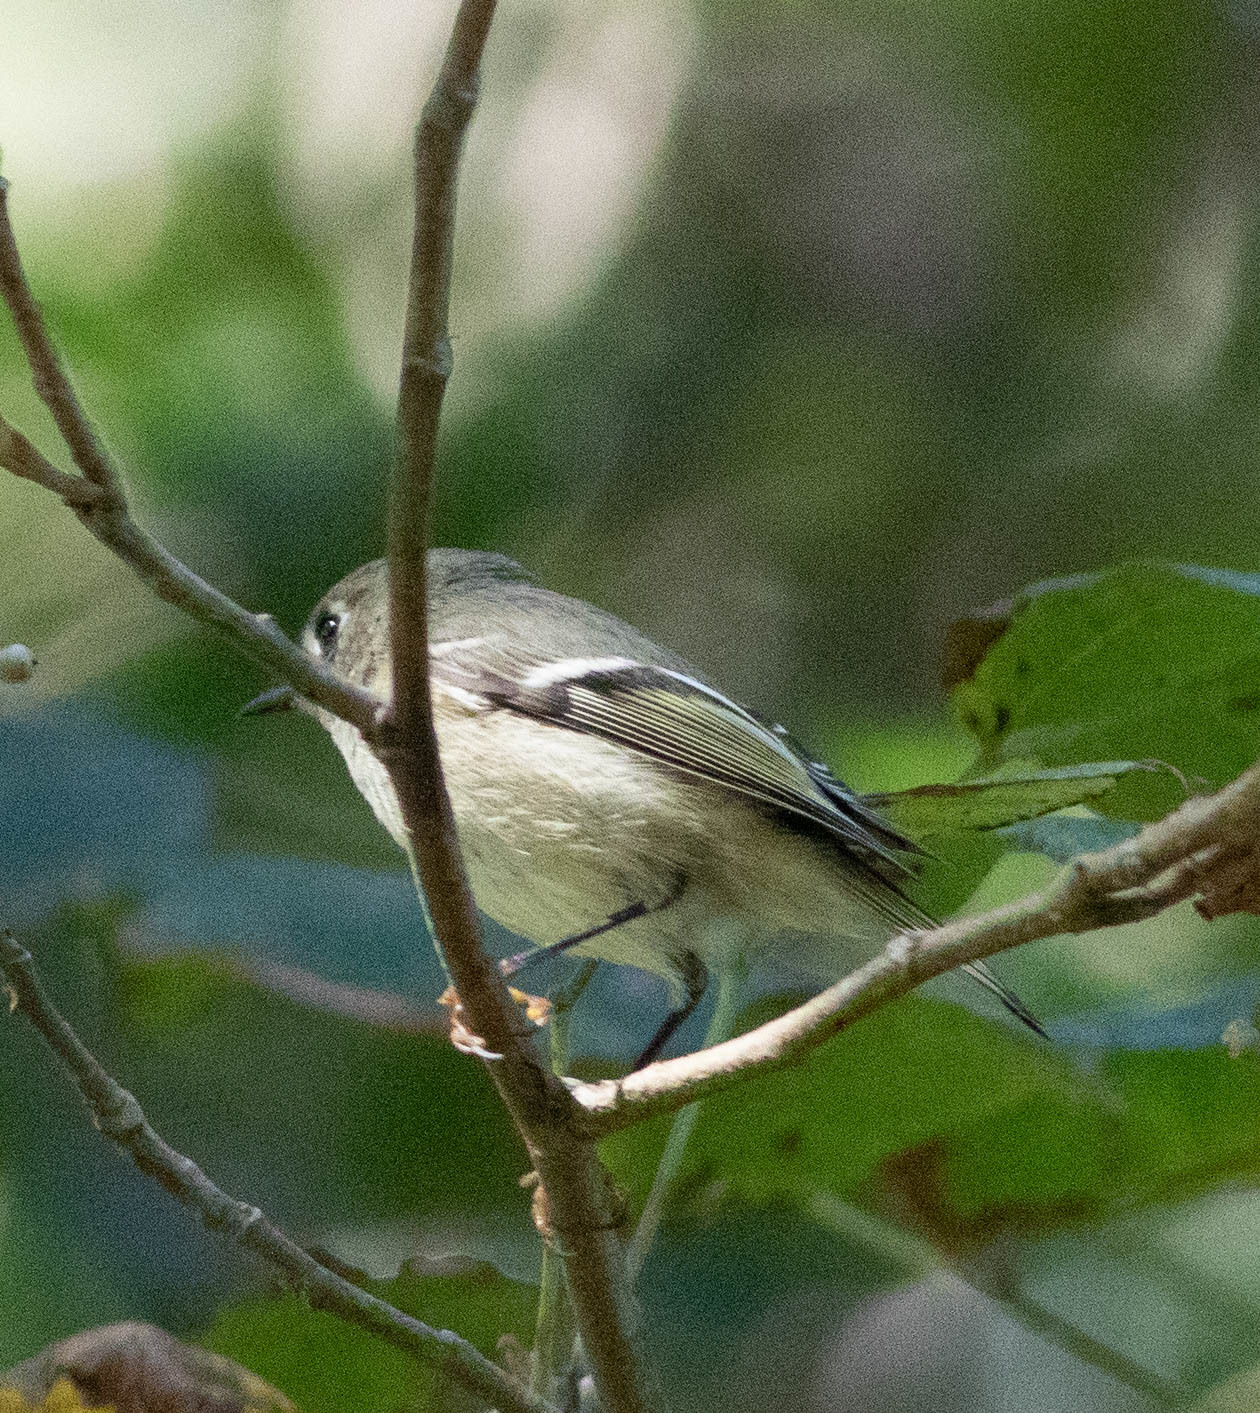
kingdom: Animalia
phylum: Chordata
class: Aves
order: Passeriformes
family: Regulidae
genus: Regulus
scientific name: Regulus calendula
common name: Ruby-crowned kinglet
